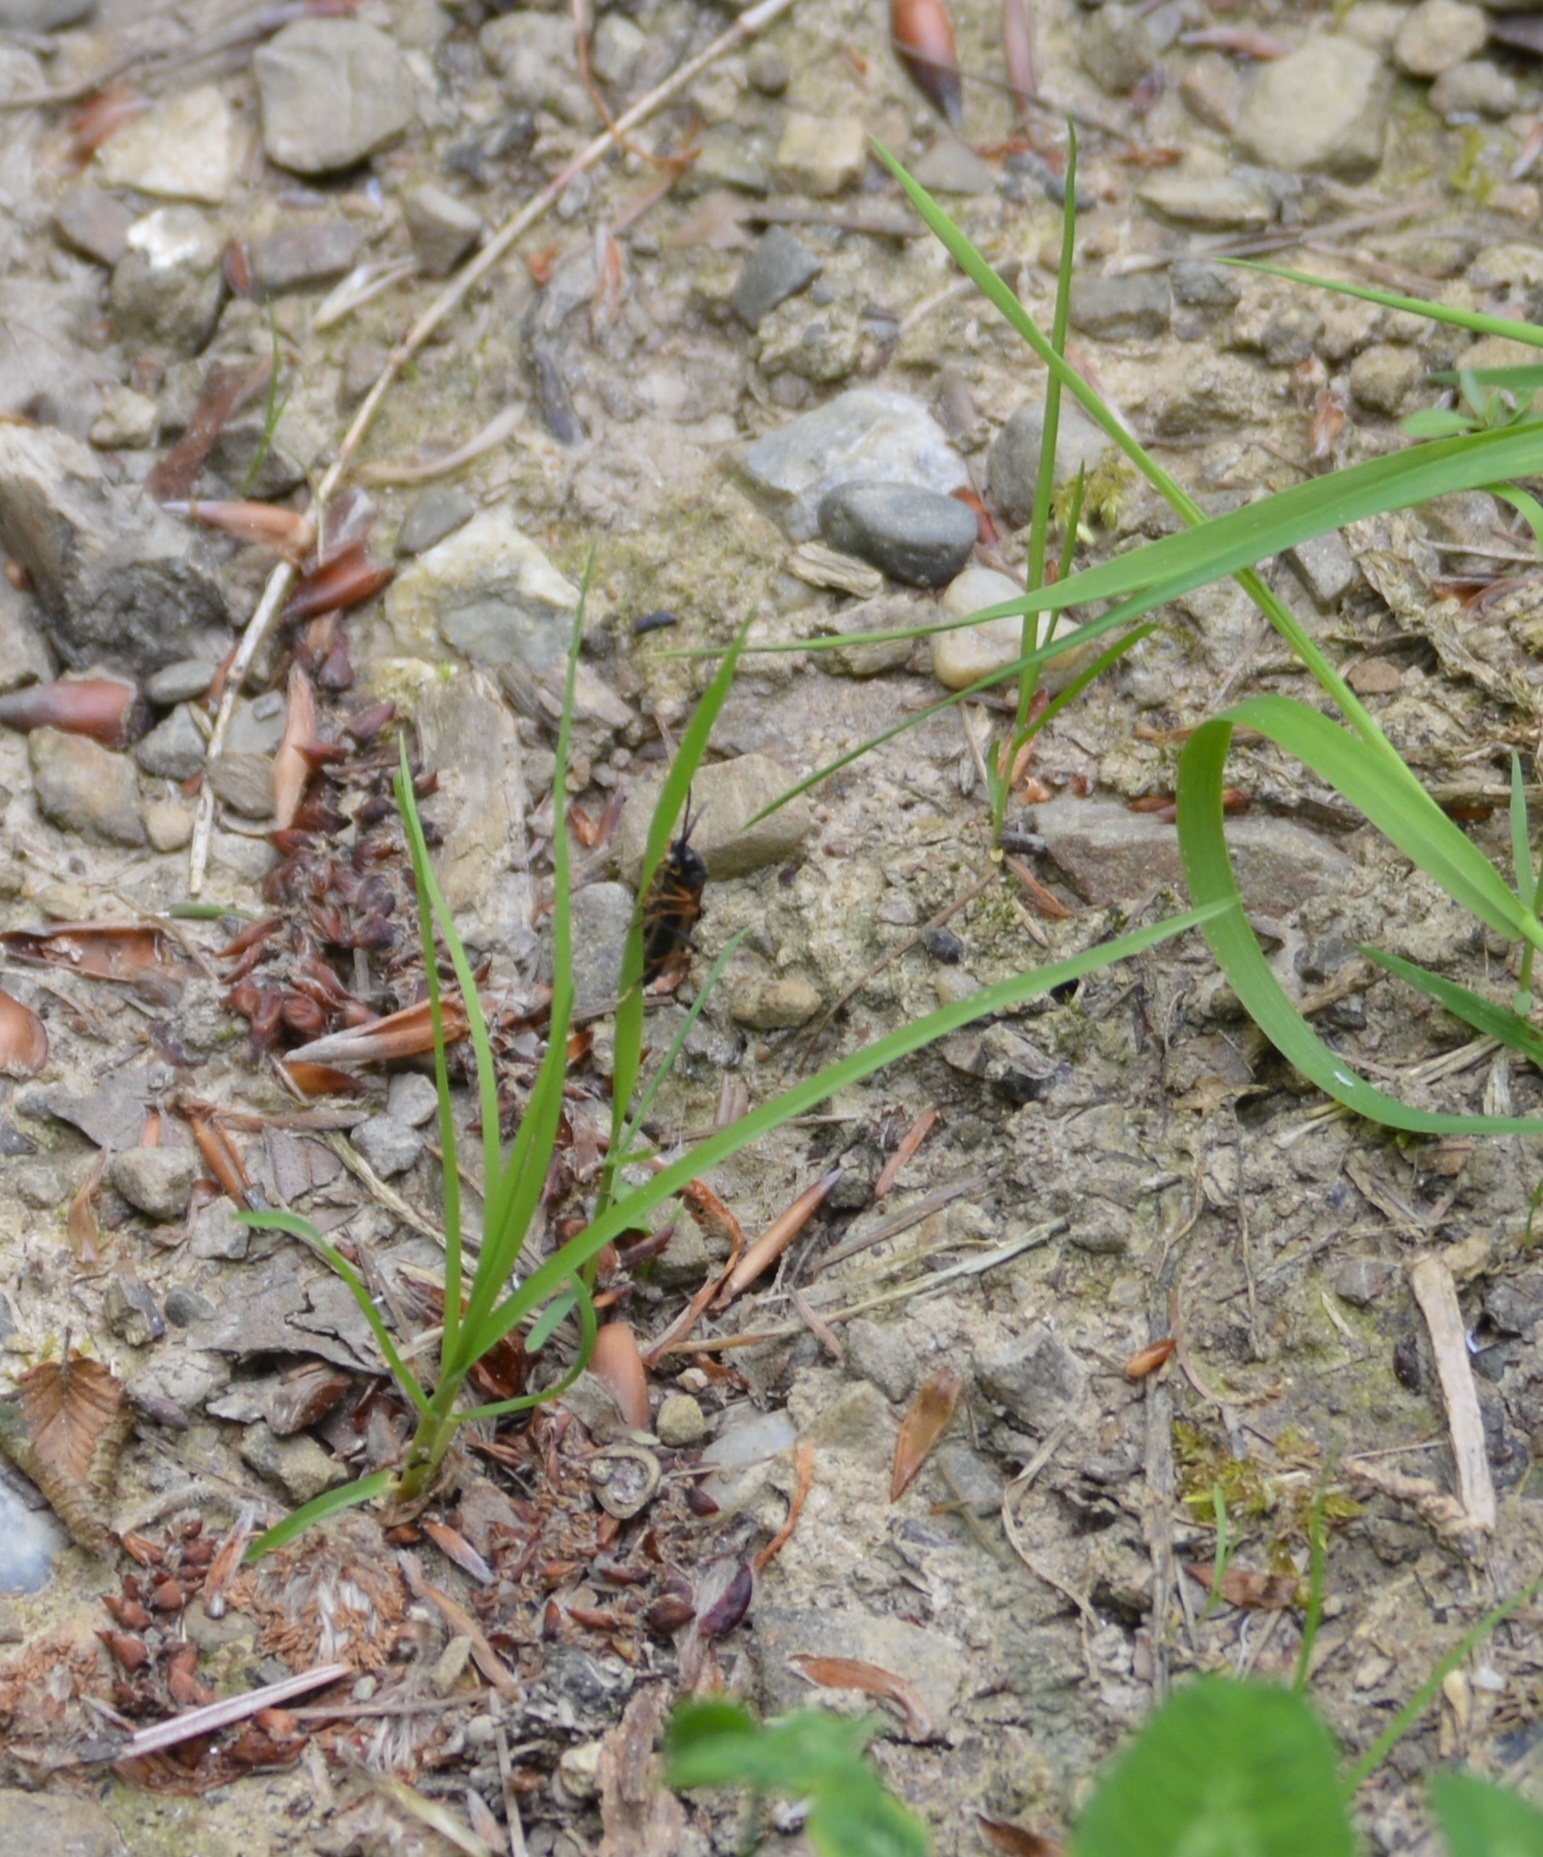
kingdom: Animalia
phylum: Arthropoda
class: Insecta
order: Hymenoptera
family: Tenthredinidae
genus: Tenthredopsis
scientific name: Tenthredopsis tarsata
